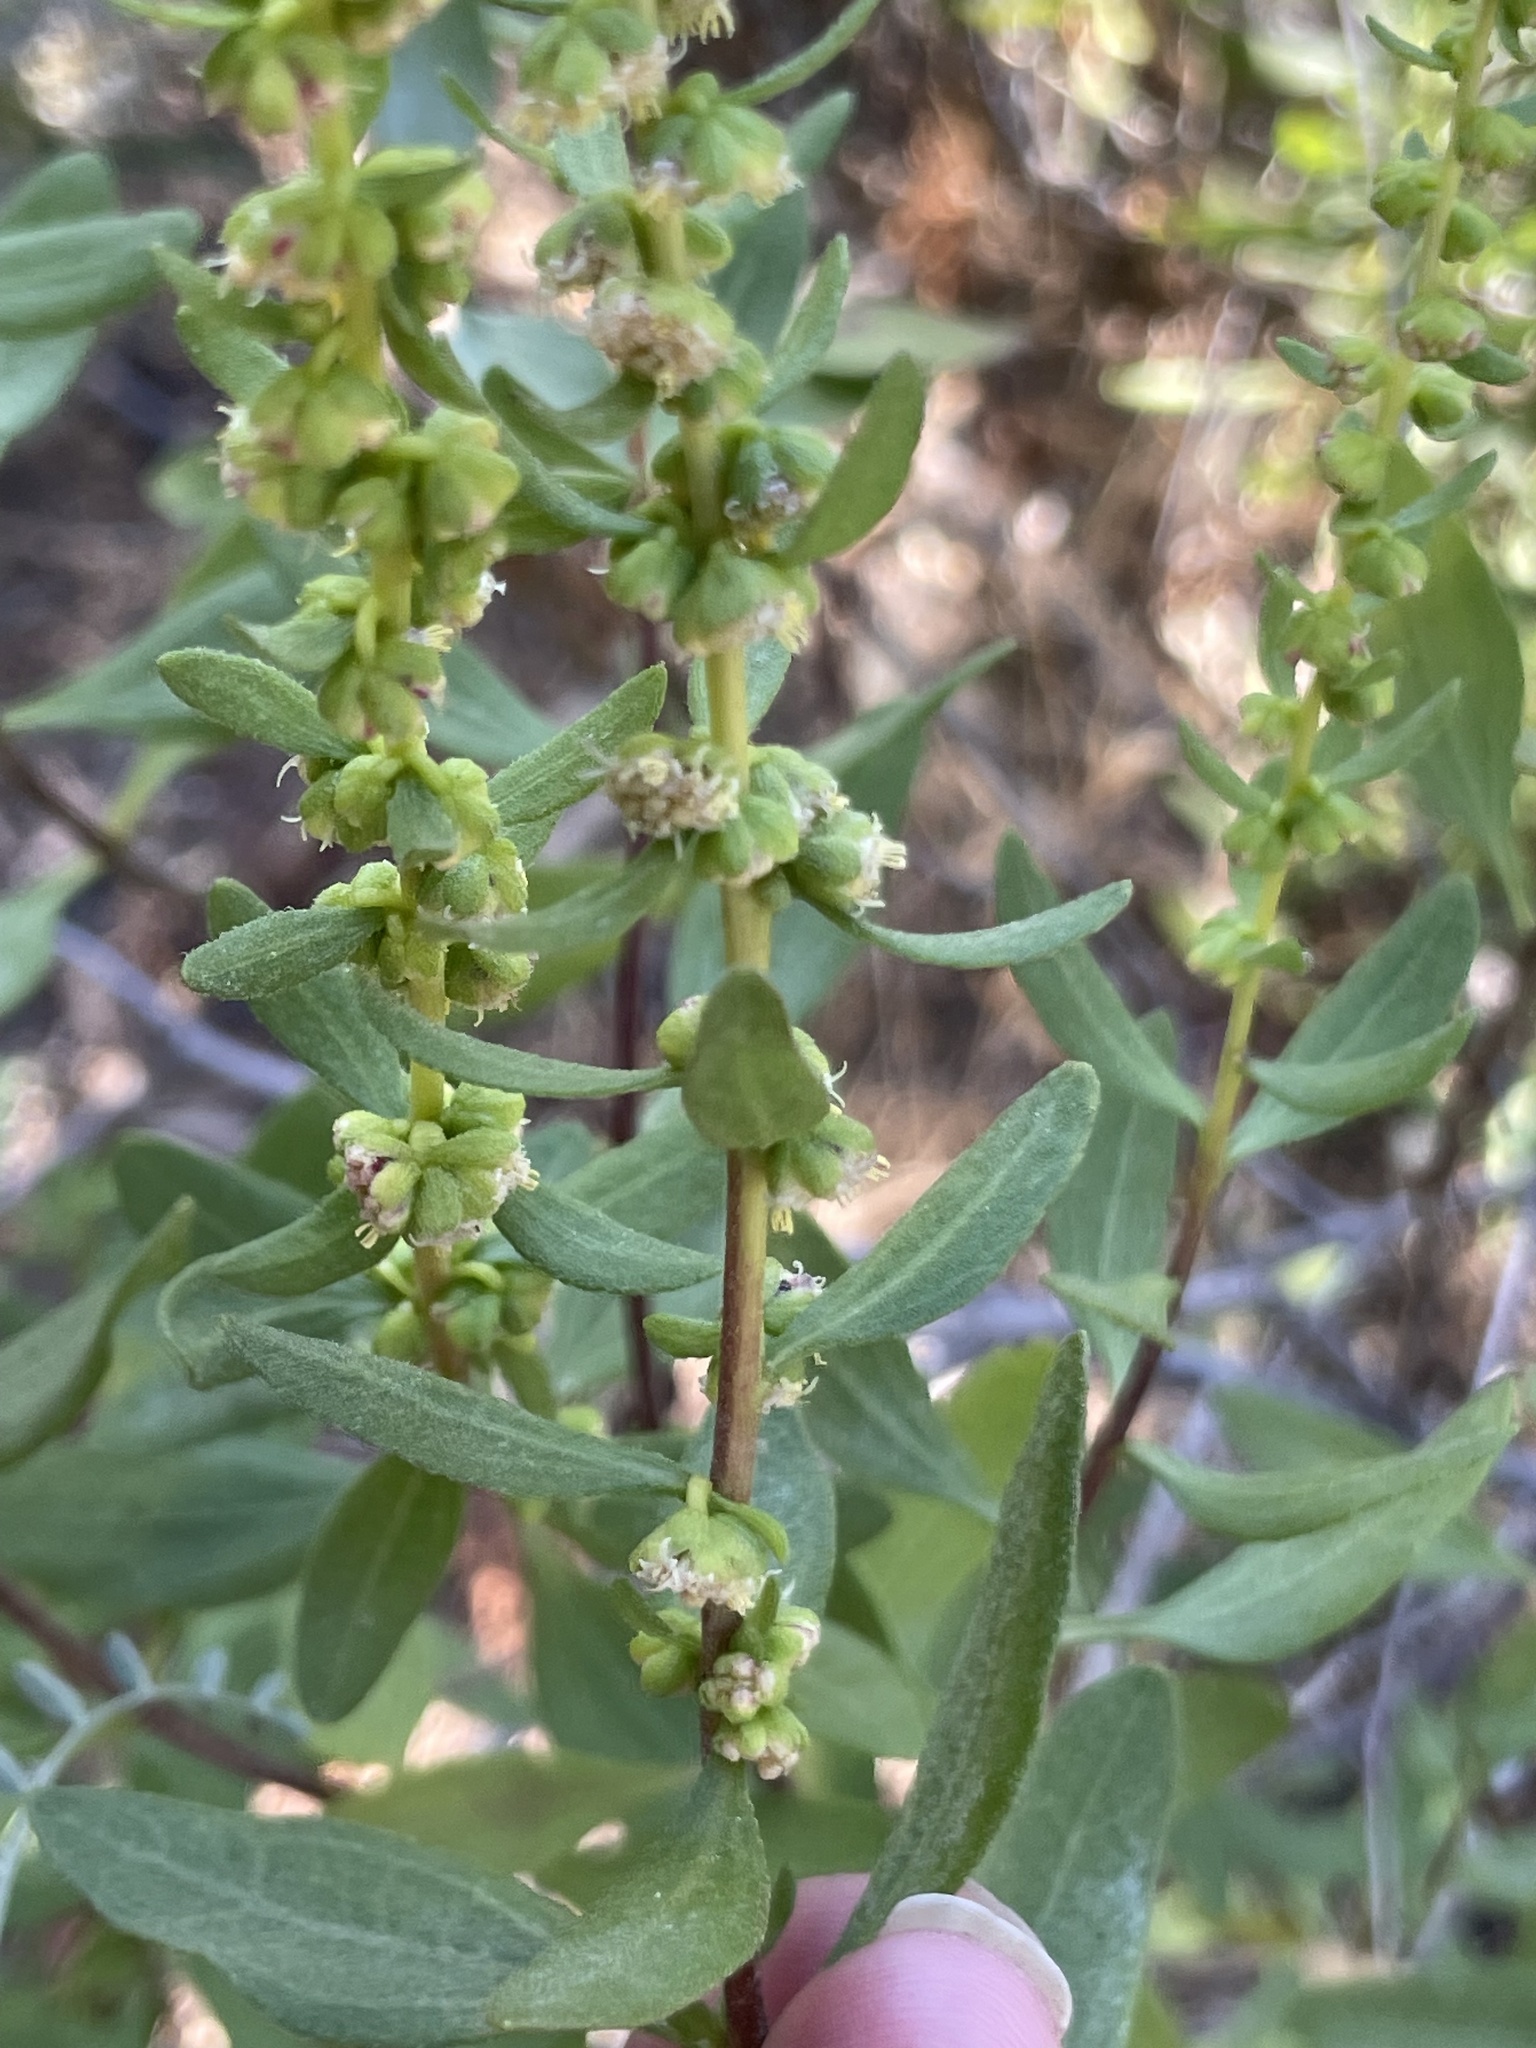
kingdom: Plantae
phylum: Tracheophyta
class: Magnoliopsida
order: Asterales
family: Asteraceae
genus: Iva
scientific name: Iva hayesiana
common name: San diego marsh-elder
